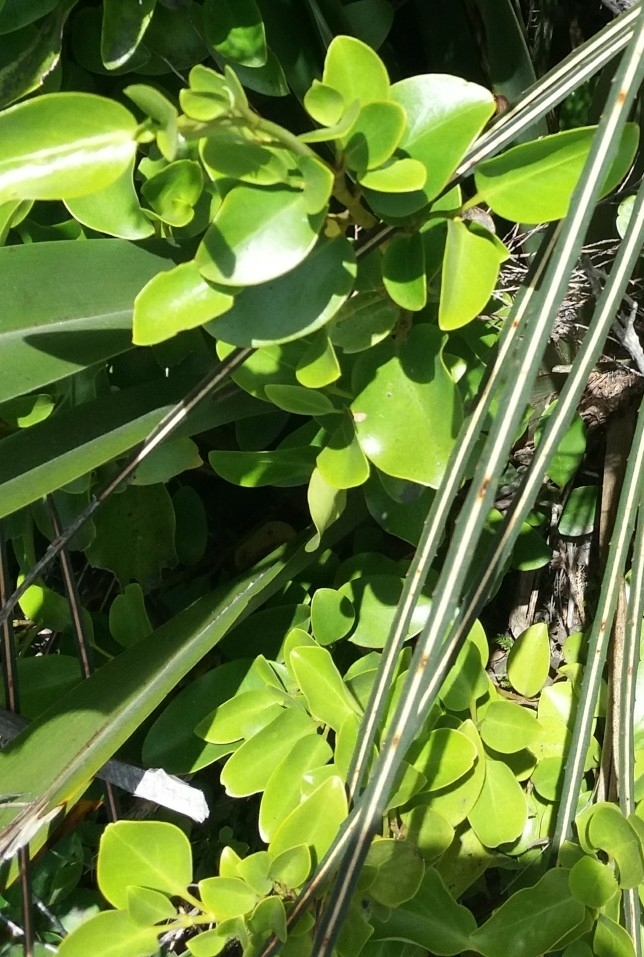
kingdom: Plantae
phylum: Tracheophyta
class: Magnoliopsida
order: Apiales
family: Griseliniaceae
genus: Griselinia
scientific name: Griselinia littoralis
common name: New zealand broadleaf
